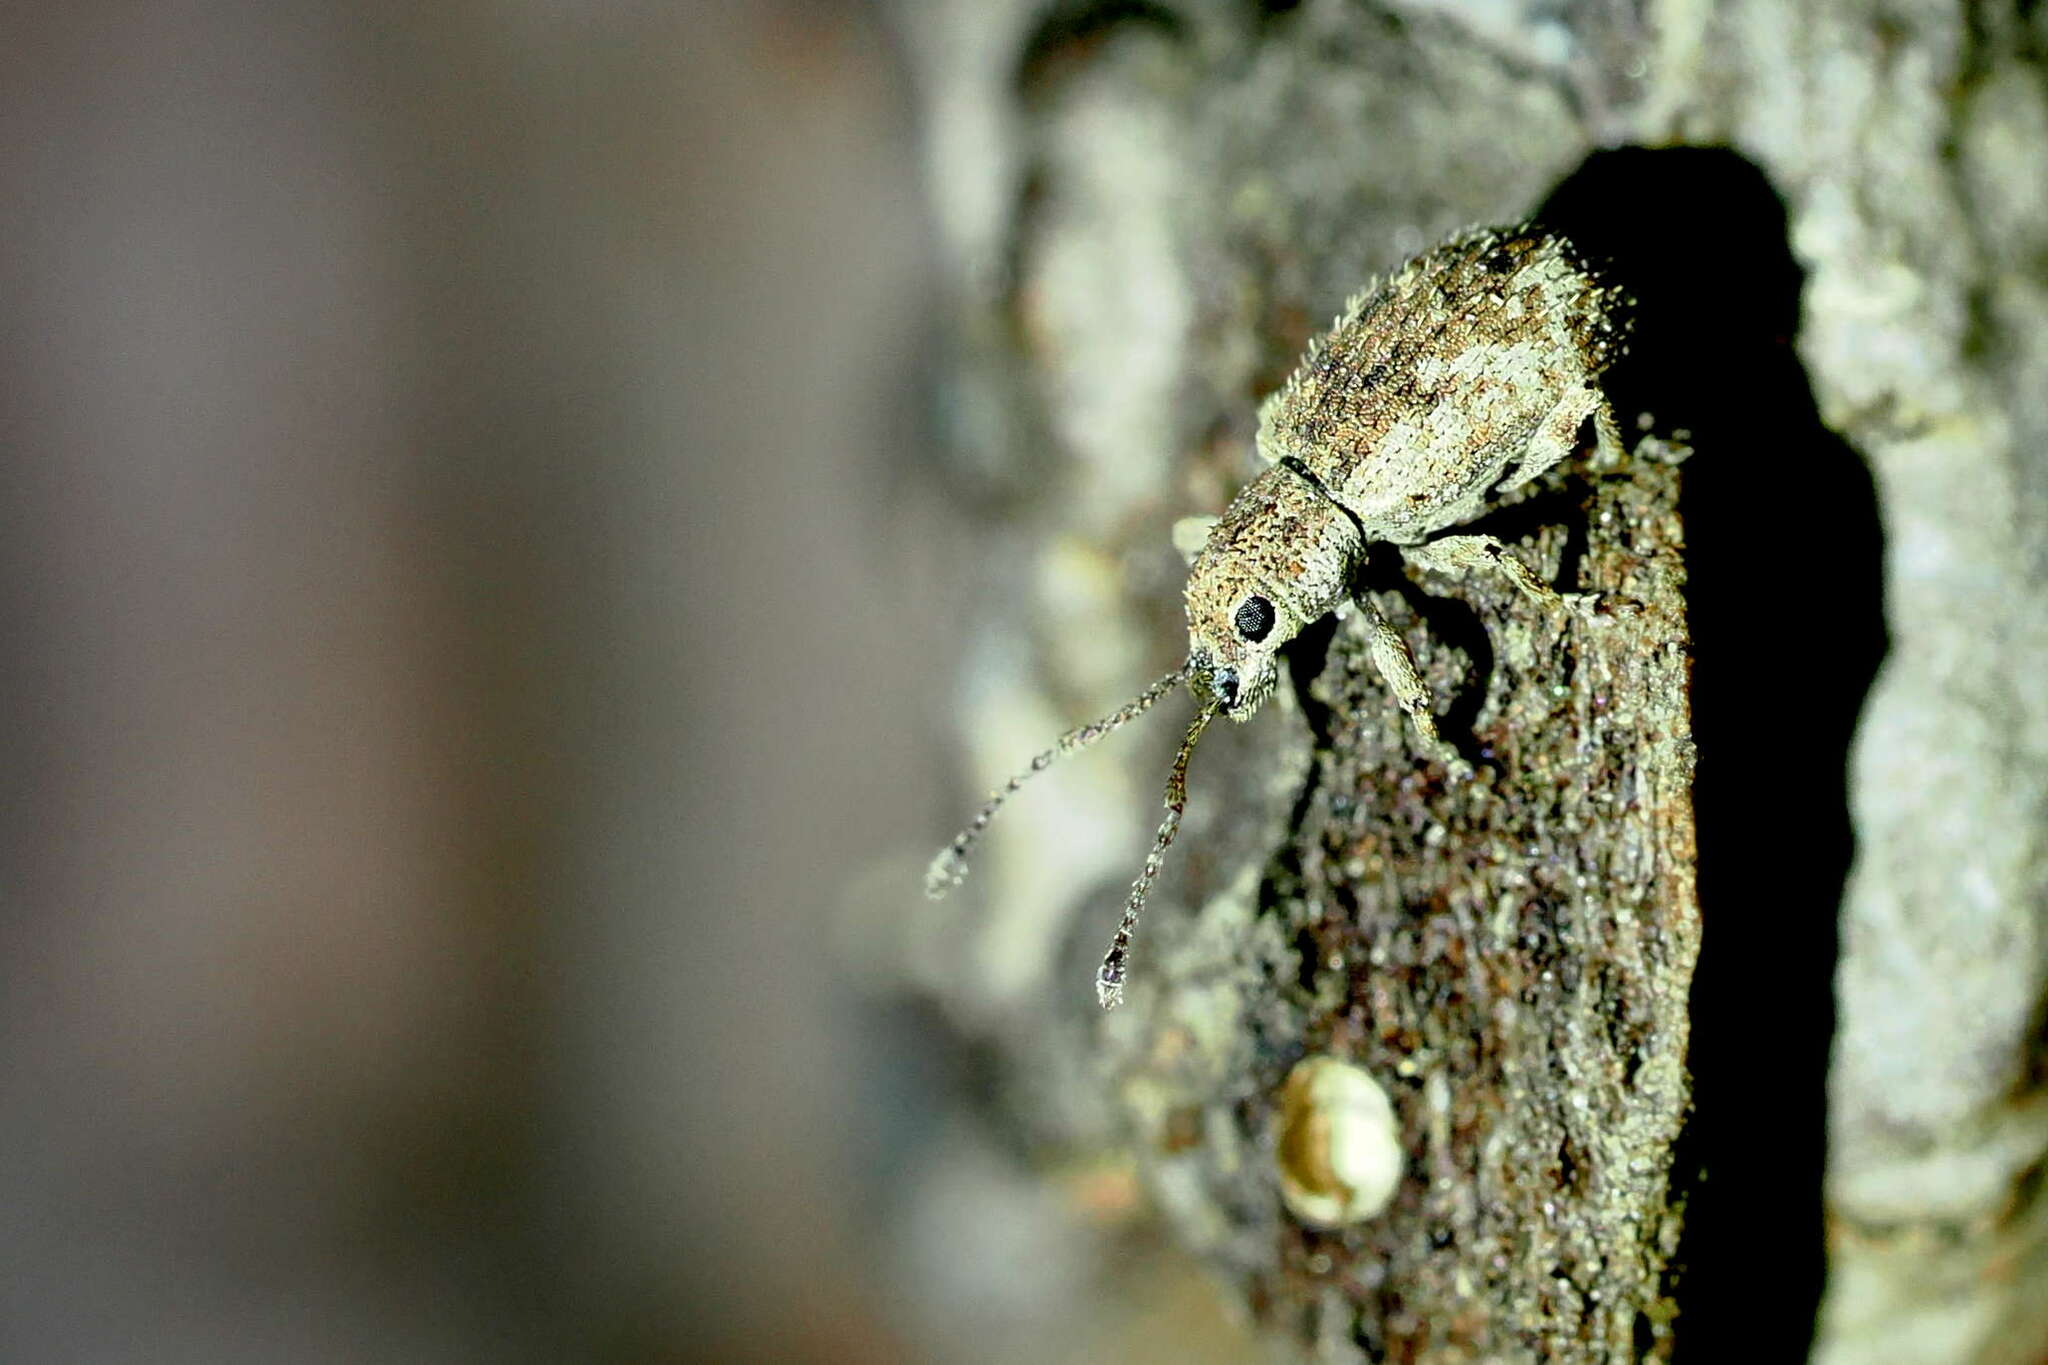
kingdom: Animalia
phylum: Arthropoda
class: Insecta
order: Coleoptera
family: Curculionidae
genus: Pseudoedophrys
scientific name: Pseudoedophrys hilleri
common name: Weevil
